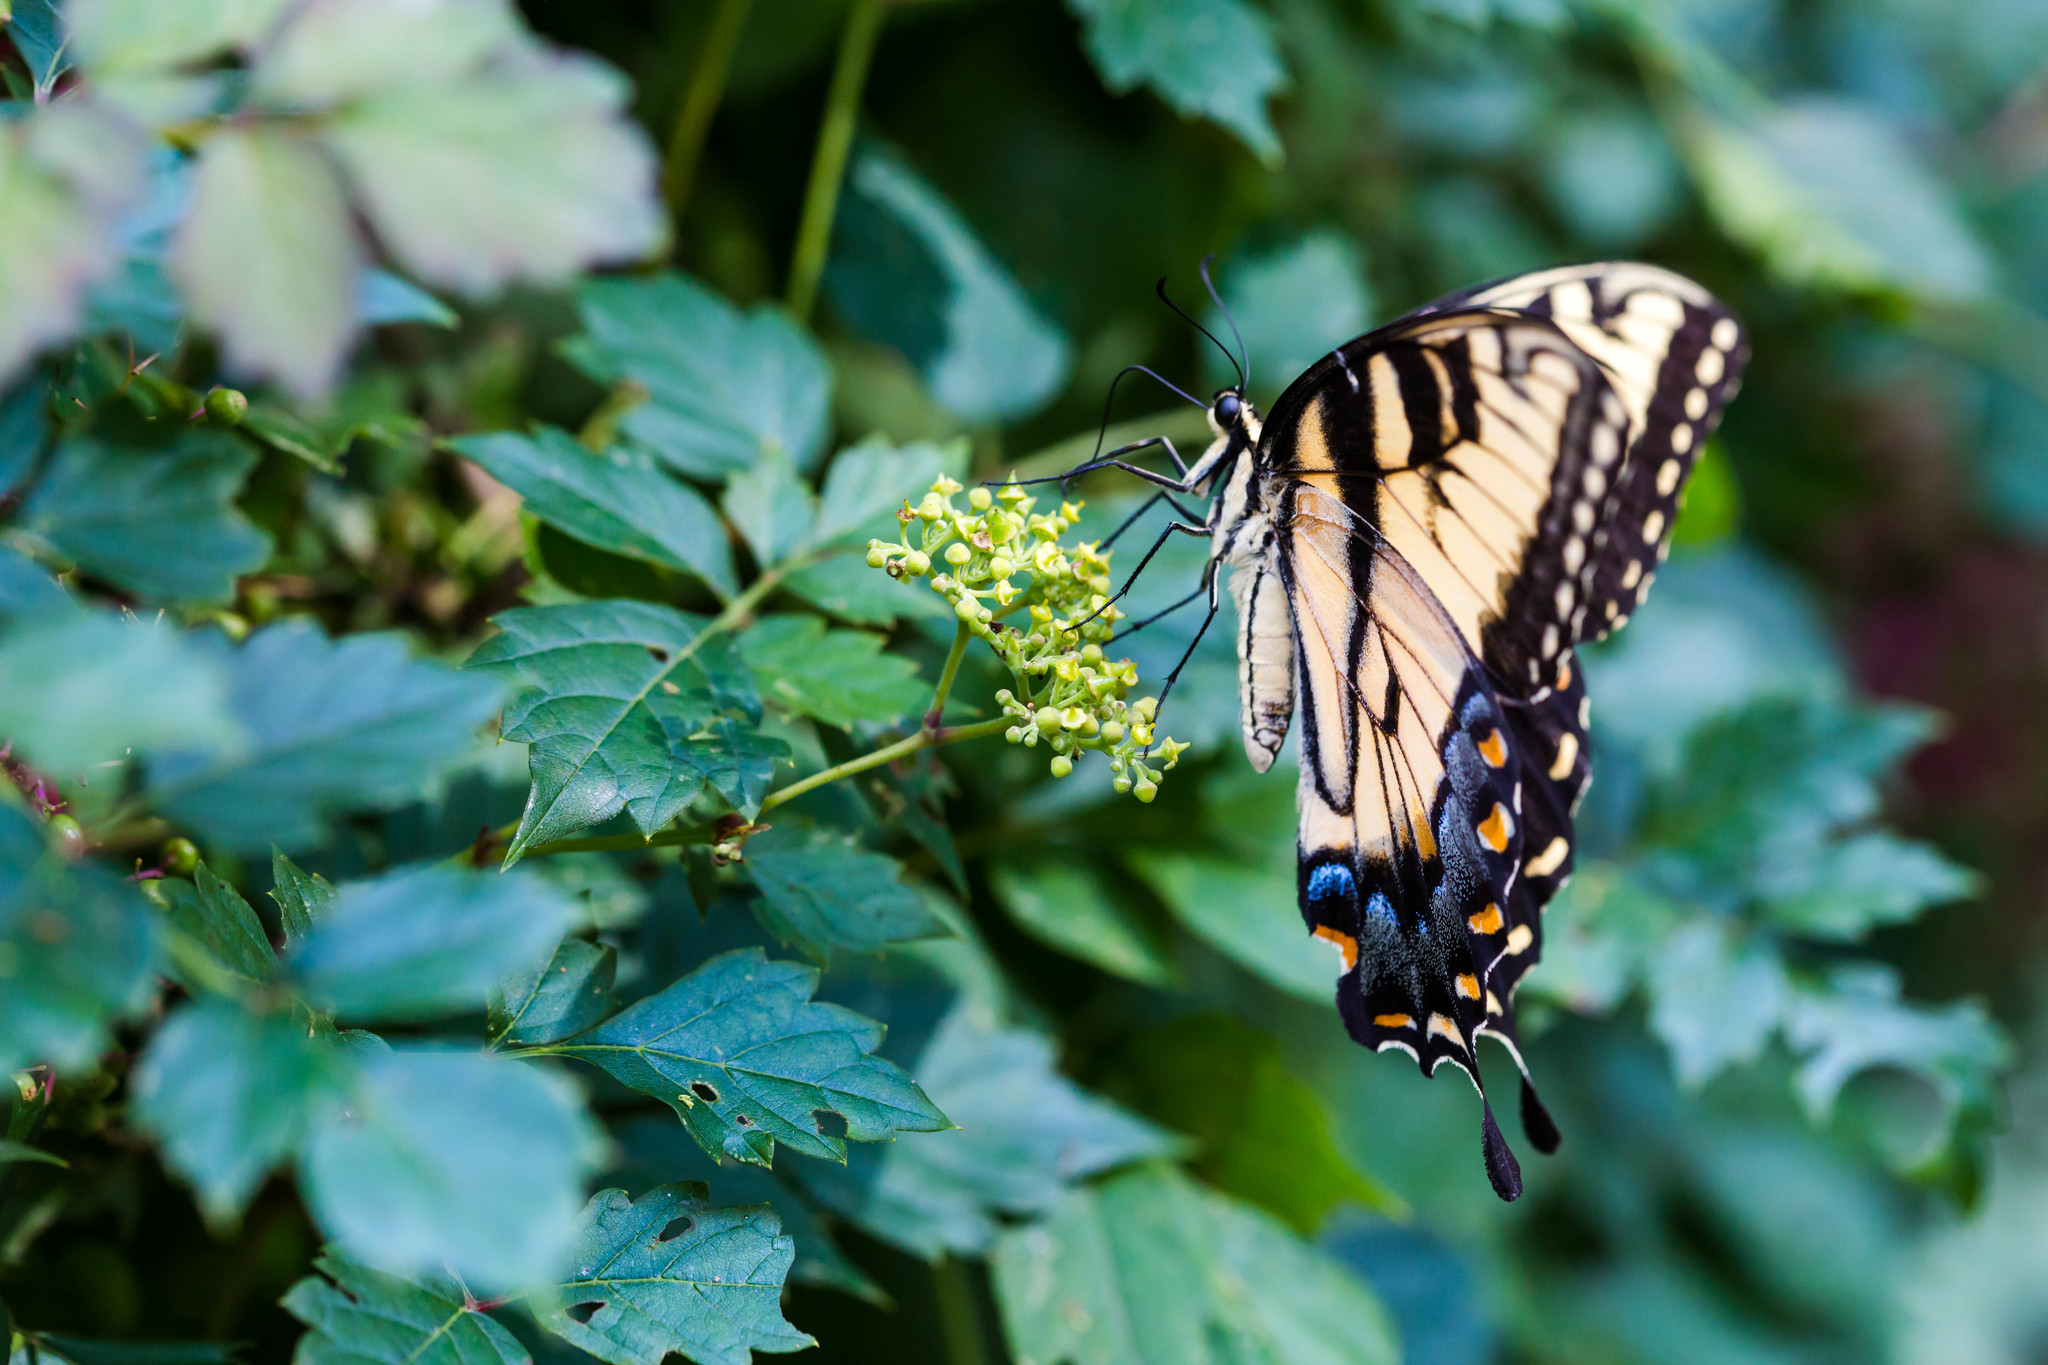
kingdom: Animalia
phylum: Arthropoda
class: Insecta
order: Lepidoptera
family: Papilionidae
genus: Papilio
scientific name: Papilio glaucus
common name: Tiger swallowtail
